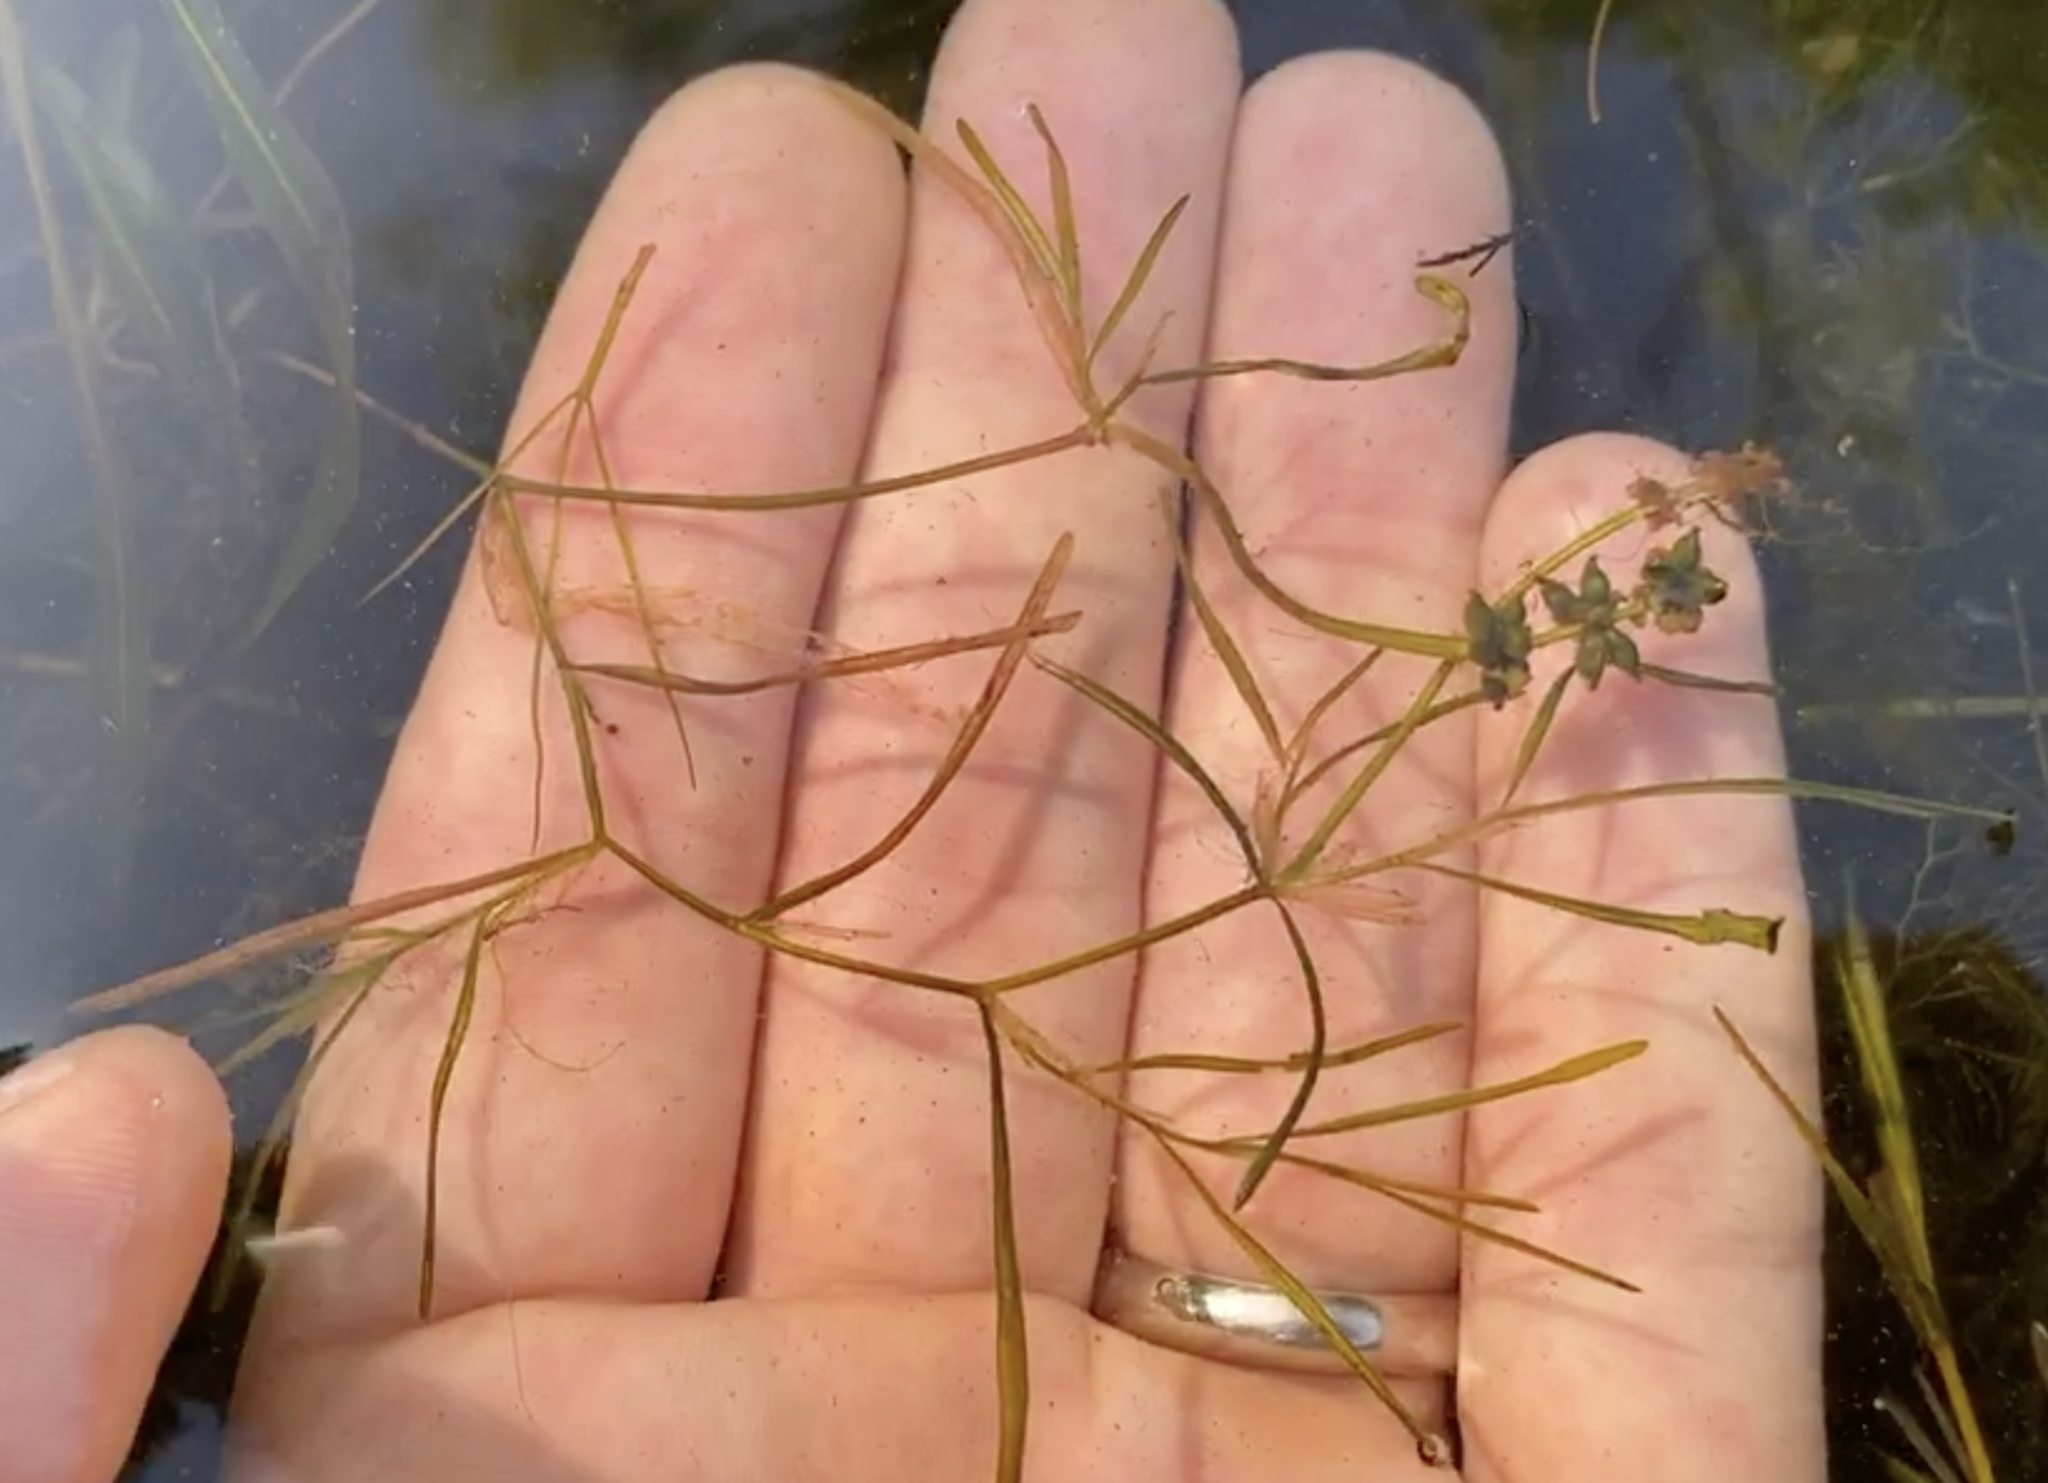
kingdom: Plantae
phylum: Tracheophyta
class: Liliopsida
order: Alismatales
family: Potamogetonaceae
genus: Potamogeton
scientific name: Potamogeton berchtoldii
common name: Small pondweed
